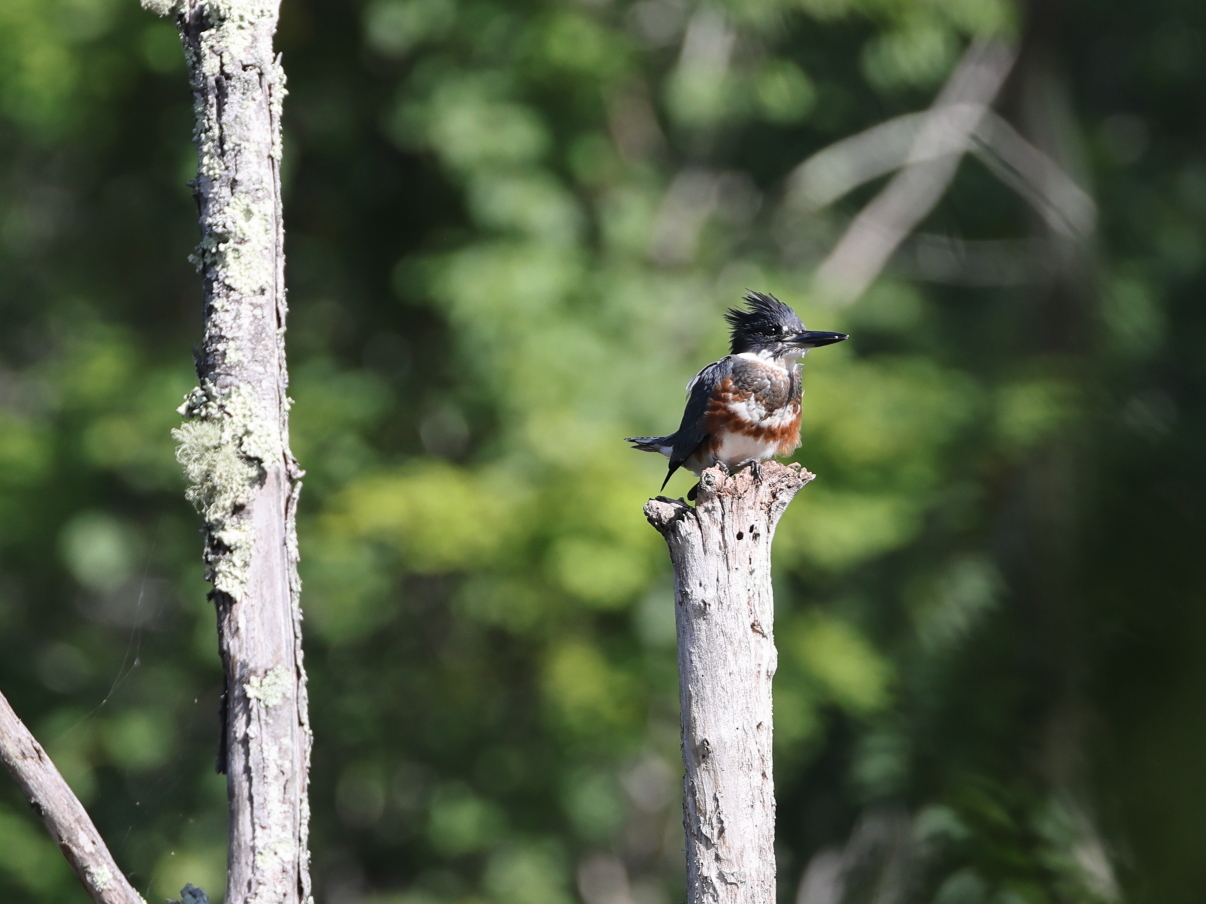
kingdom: Animalia
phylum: Chordata
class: Aves
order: Coraciiformes
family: Alcedinidae
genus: Megaceryle
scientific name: Megaceryle alcyon
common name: Belted kingfisher
